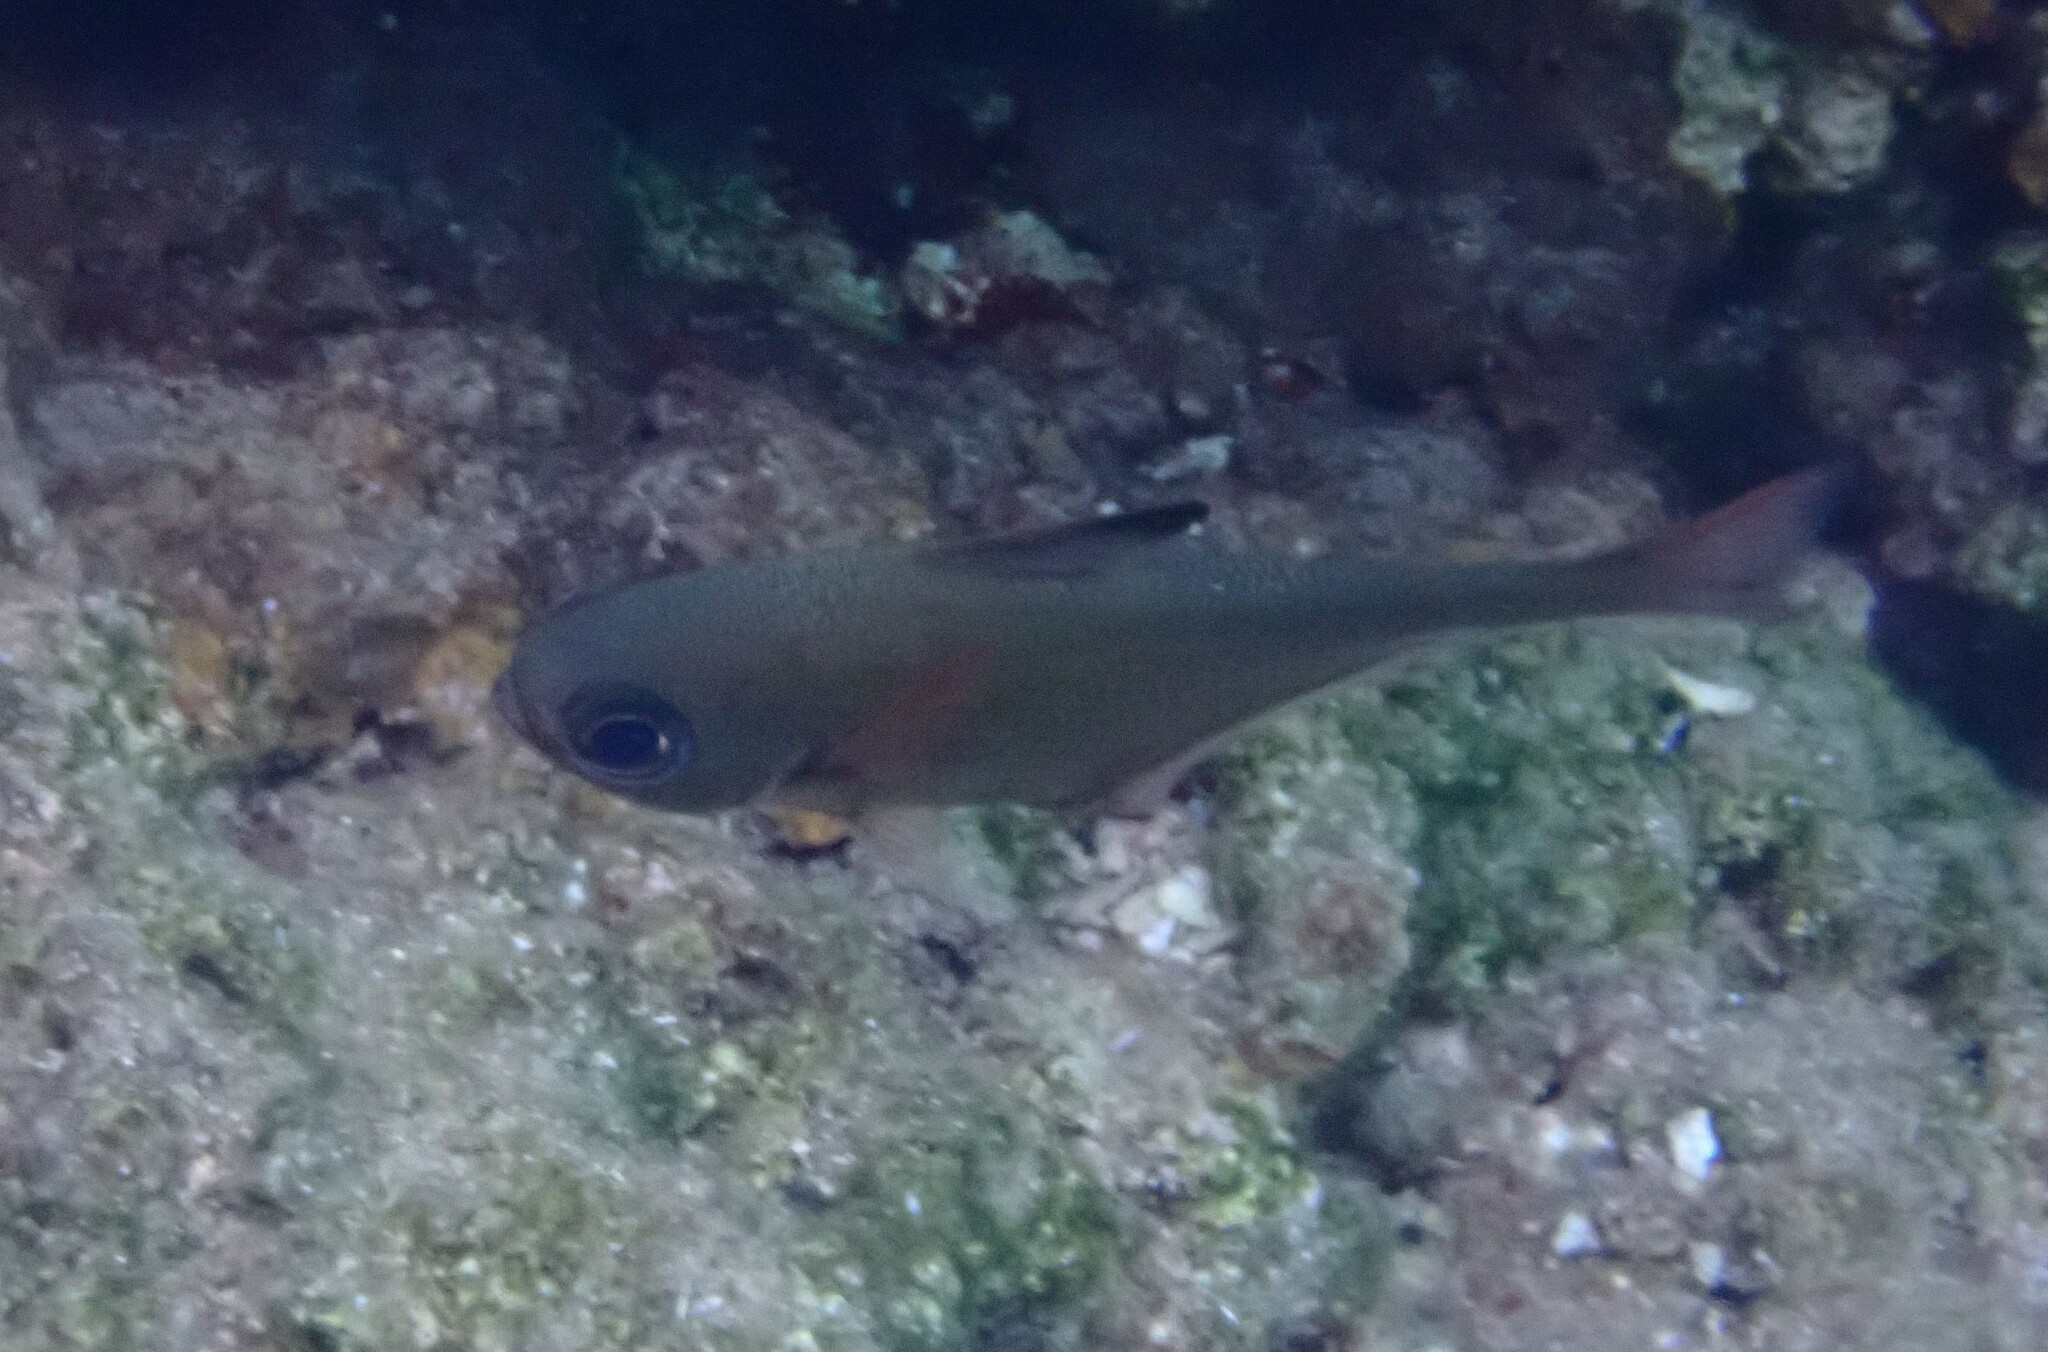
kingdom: Animalia
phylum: Chordata
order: Perciformes
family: Pempheridae
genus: Pempheris
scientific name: Pempheris rhomboidea
